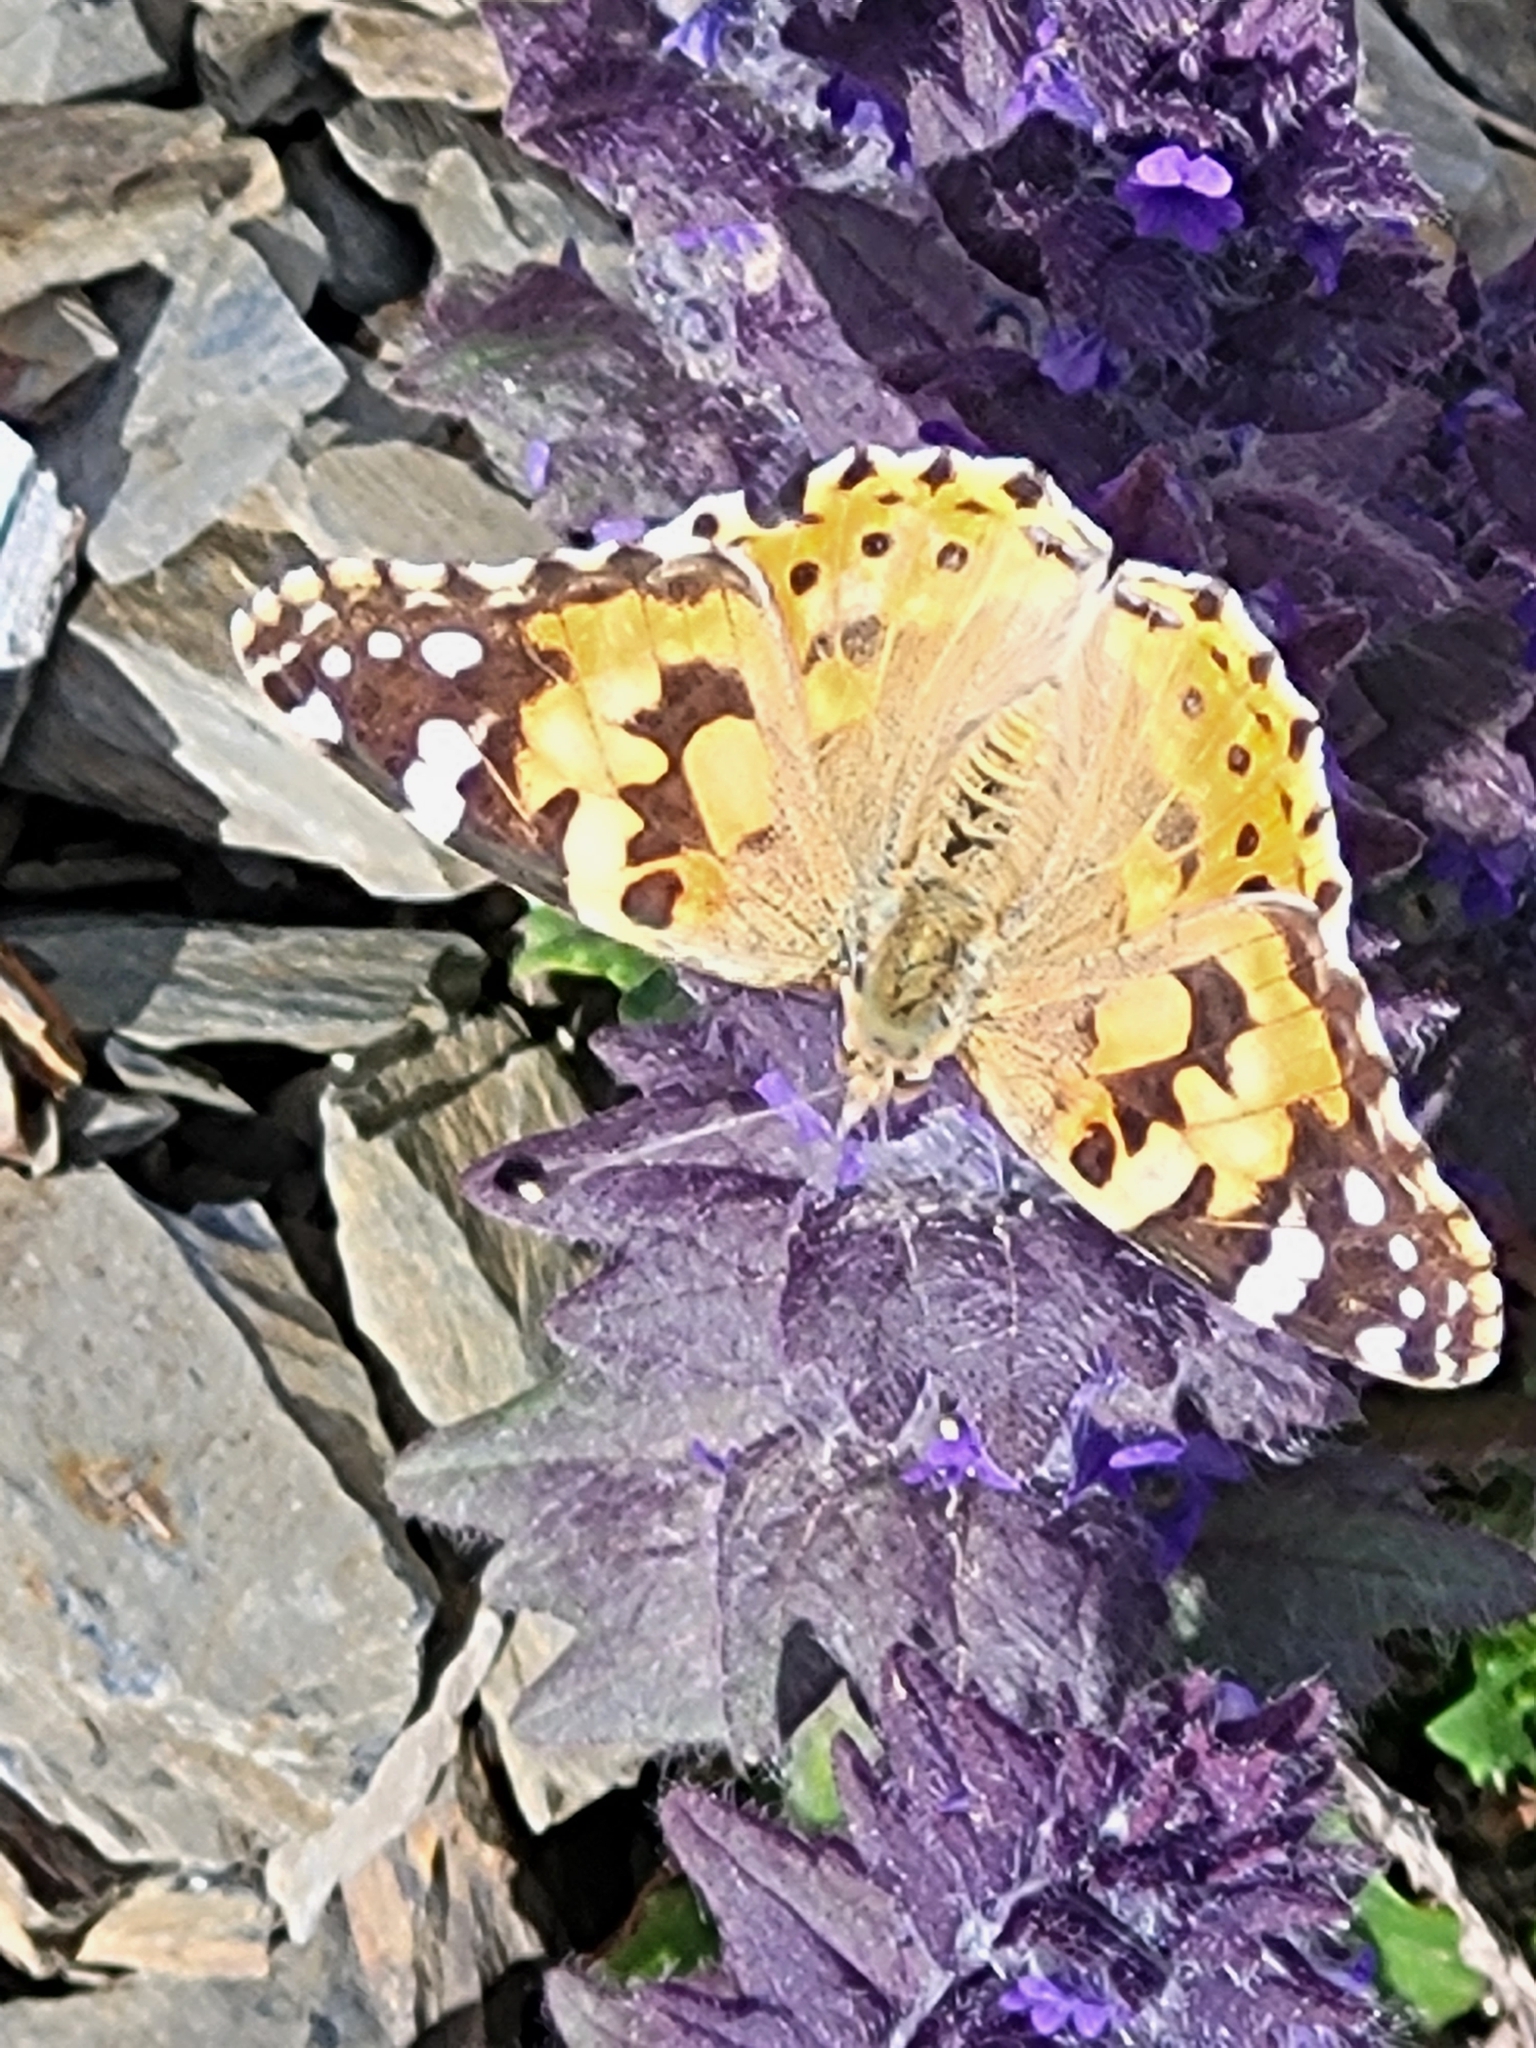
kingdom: Animalia
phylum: Arthropoda
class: Insecta
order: Lepidoptera
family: Nymphalidae
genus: Vanessa
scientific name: Vanessa cardui
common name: Painted lady
